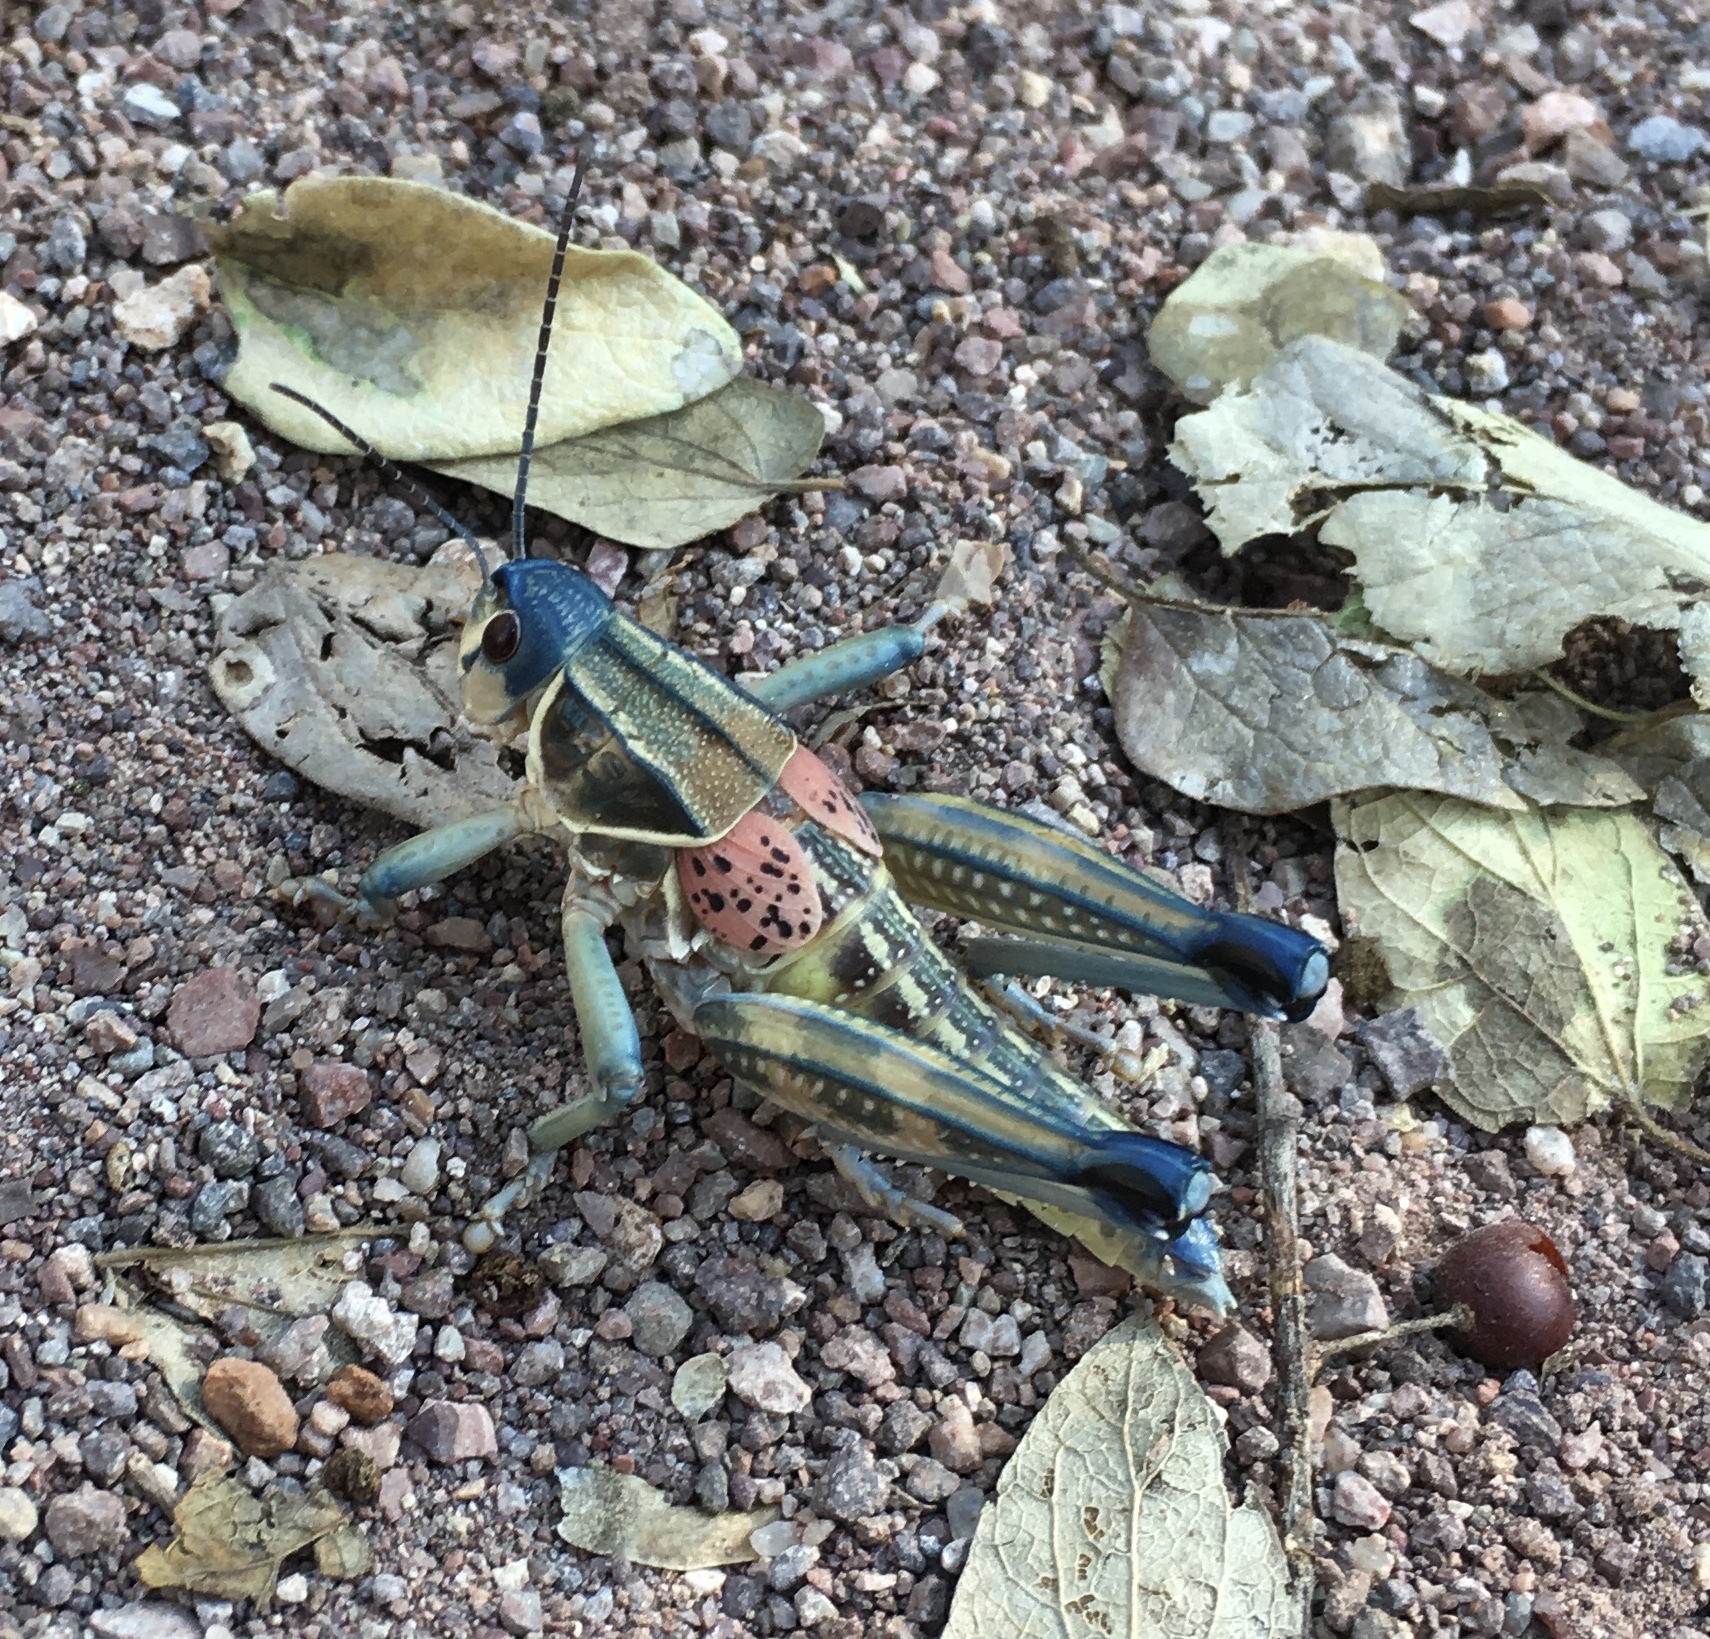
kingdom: Animalia
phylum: Arthropoda
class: Insecta
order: Orthoptera
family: Romaleidae
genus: Brachystola
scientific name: Brachystola magna
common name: Plains lubber grasshopper
